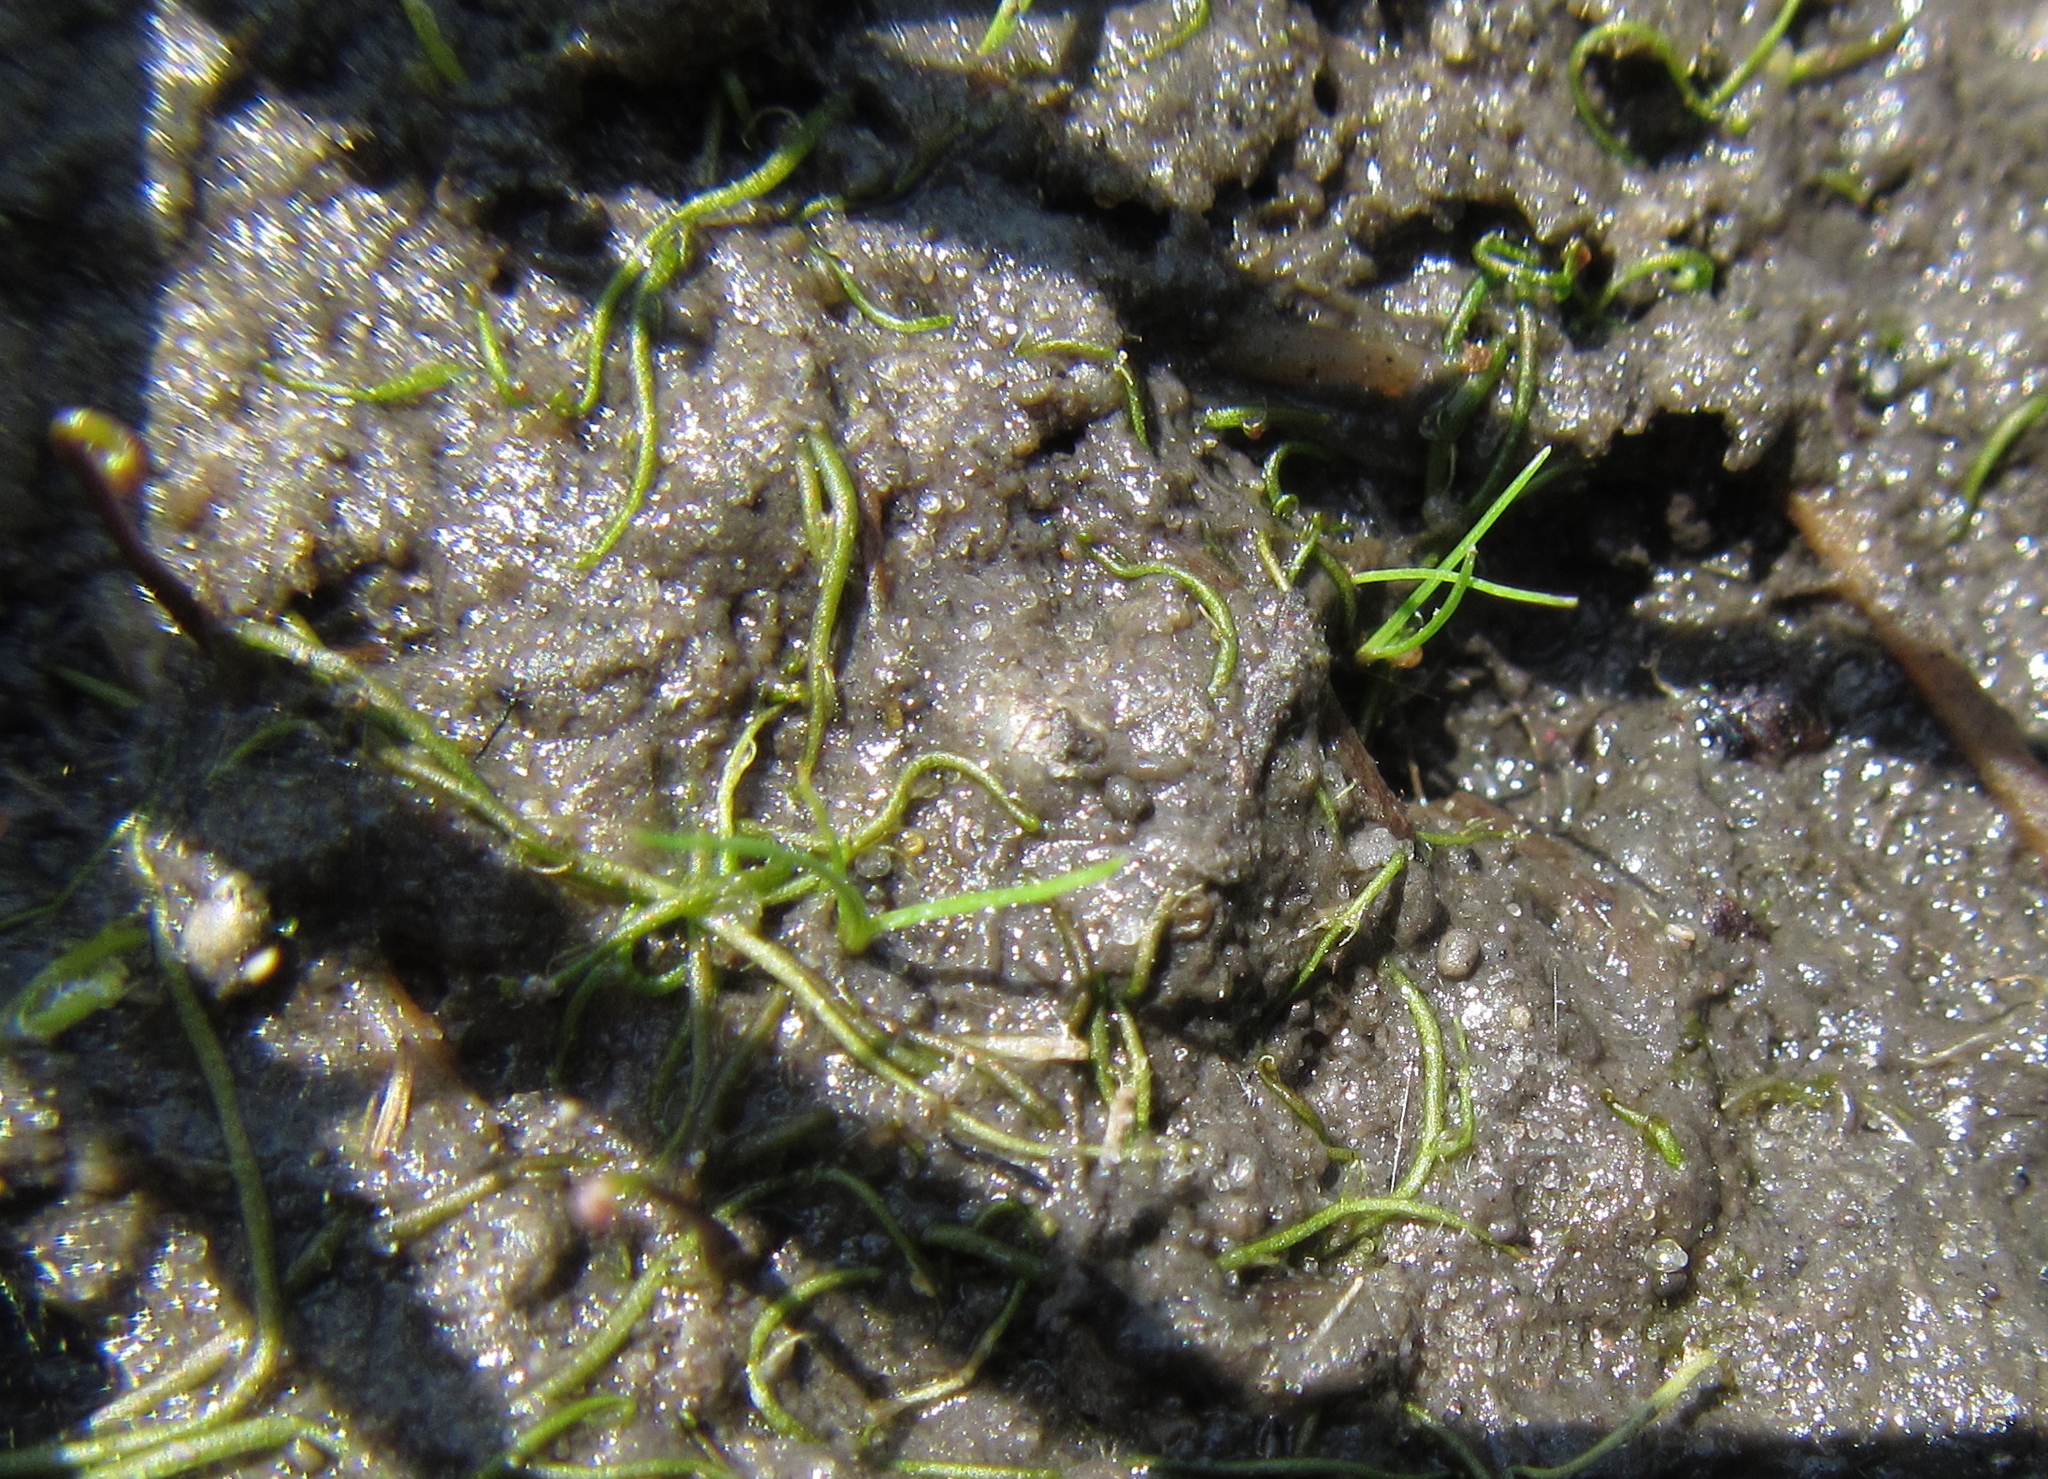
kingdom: Plantae
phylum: Tracheophyta
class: Magnoliopsida
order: Lamiales
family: Lentibulariaceae
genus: Utricularia
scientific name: Utricularia gibba
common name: Humped bladderwort
